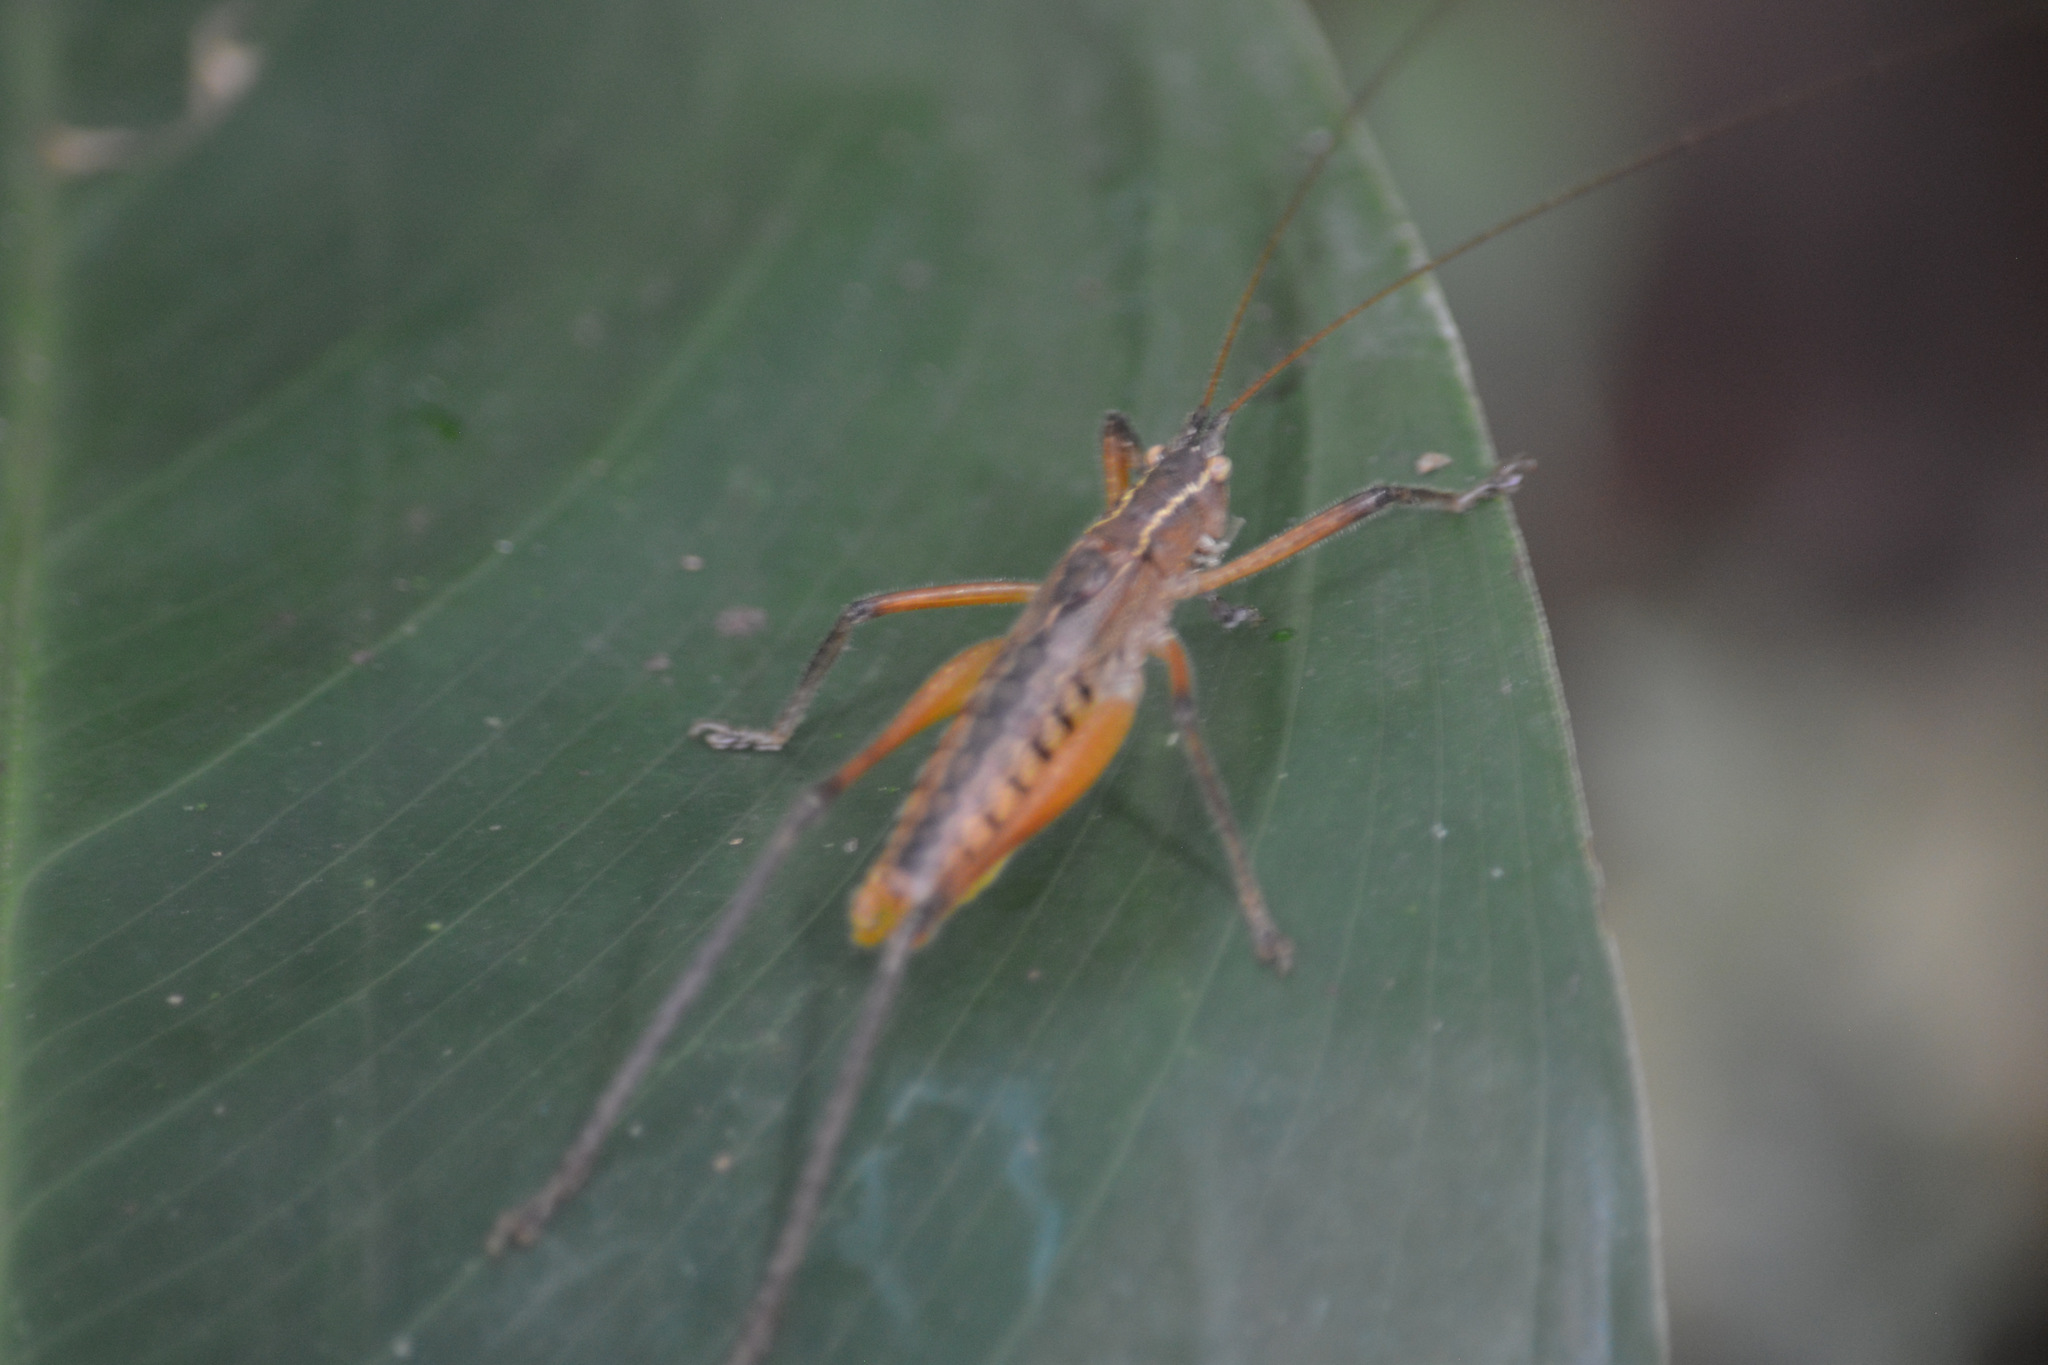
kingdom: Animalia
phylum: Arthropoda
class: Insecta
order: Orthoptera
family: Tettigoniidae
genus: Brachyteleutias
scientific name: Brachyteleutias bilineatus
